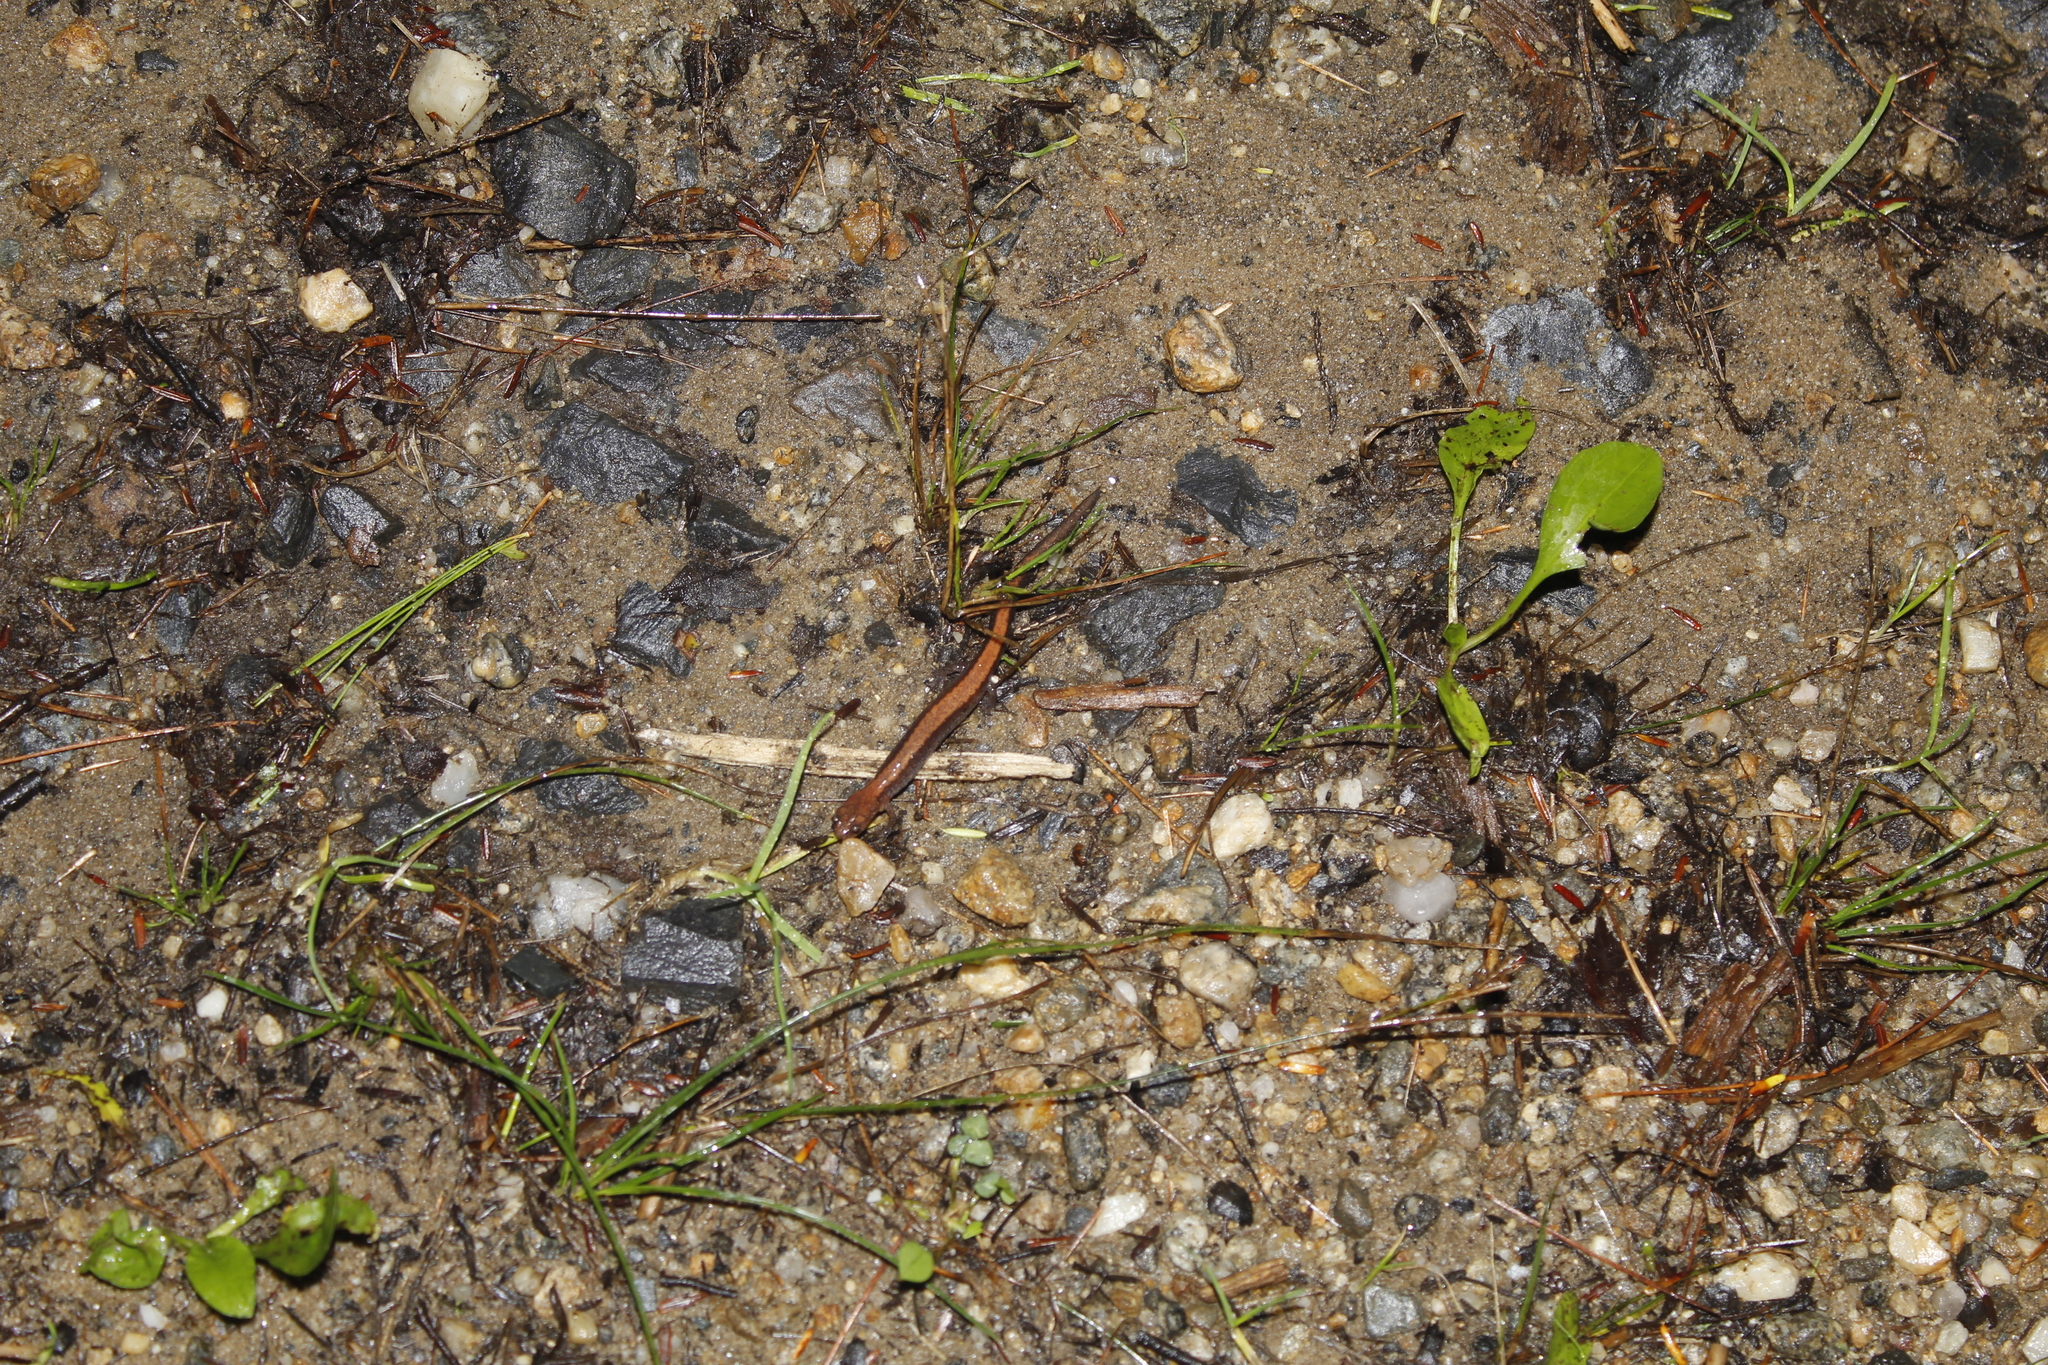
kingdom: Animalia
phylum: Chordata
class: Amphibia
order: Caudata
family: Plethodontidae
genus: Plethodon
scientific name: Plethodon cinereus
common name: Redback salamander
